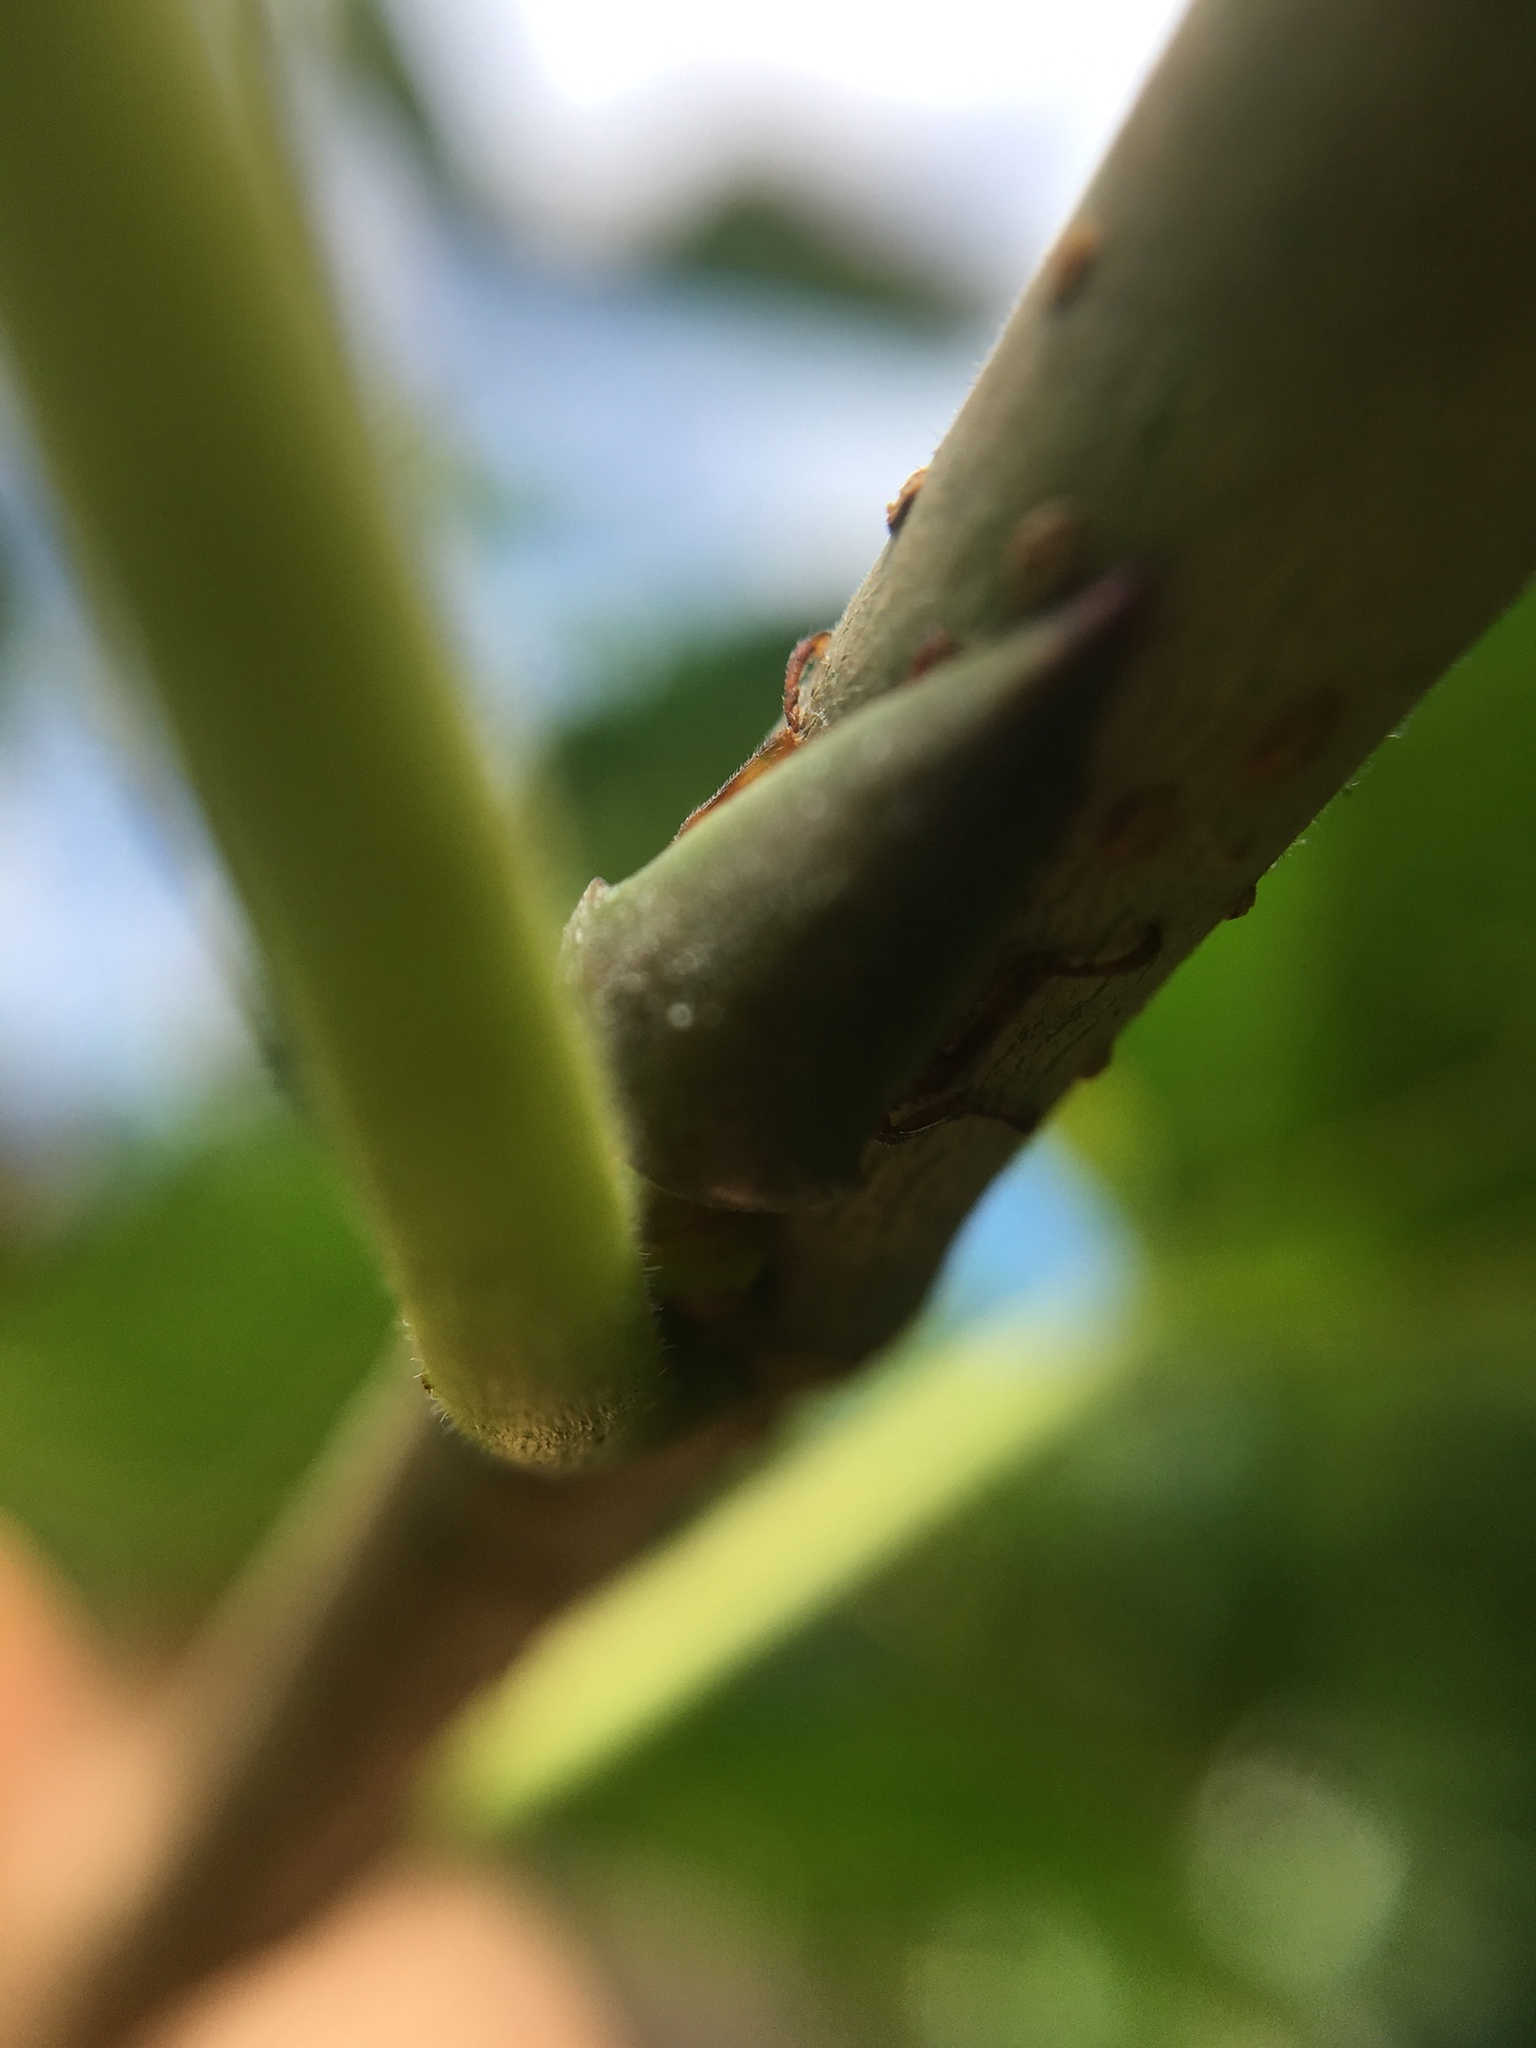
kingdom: Animalia
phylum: Arthropoda
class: Insecta
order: Hemiptera
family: Membracidae
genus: Hebetica
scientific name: Hebetica
